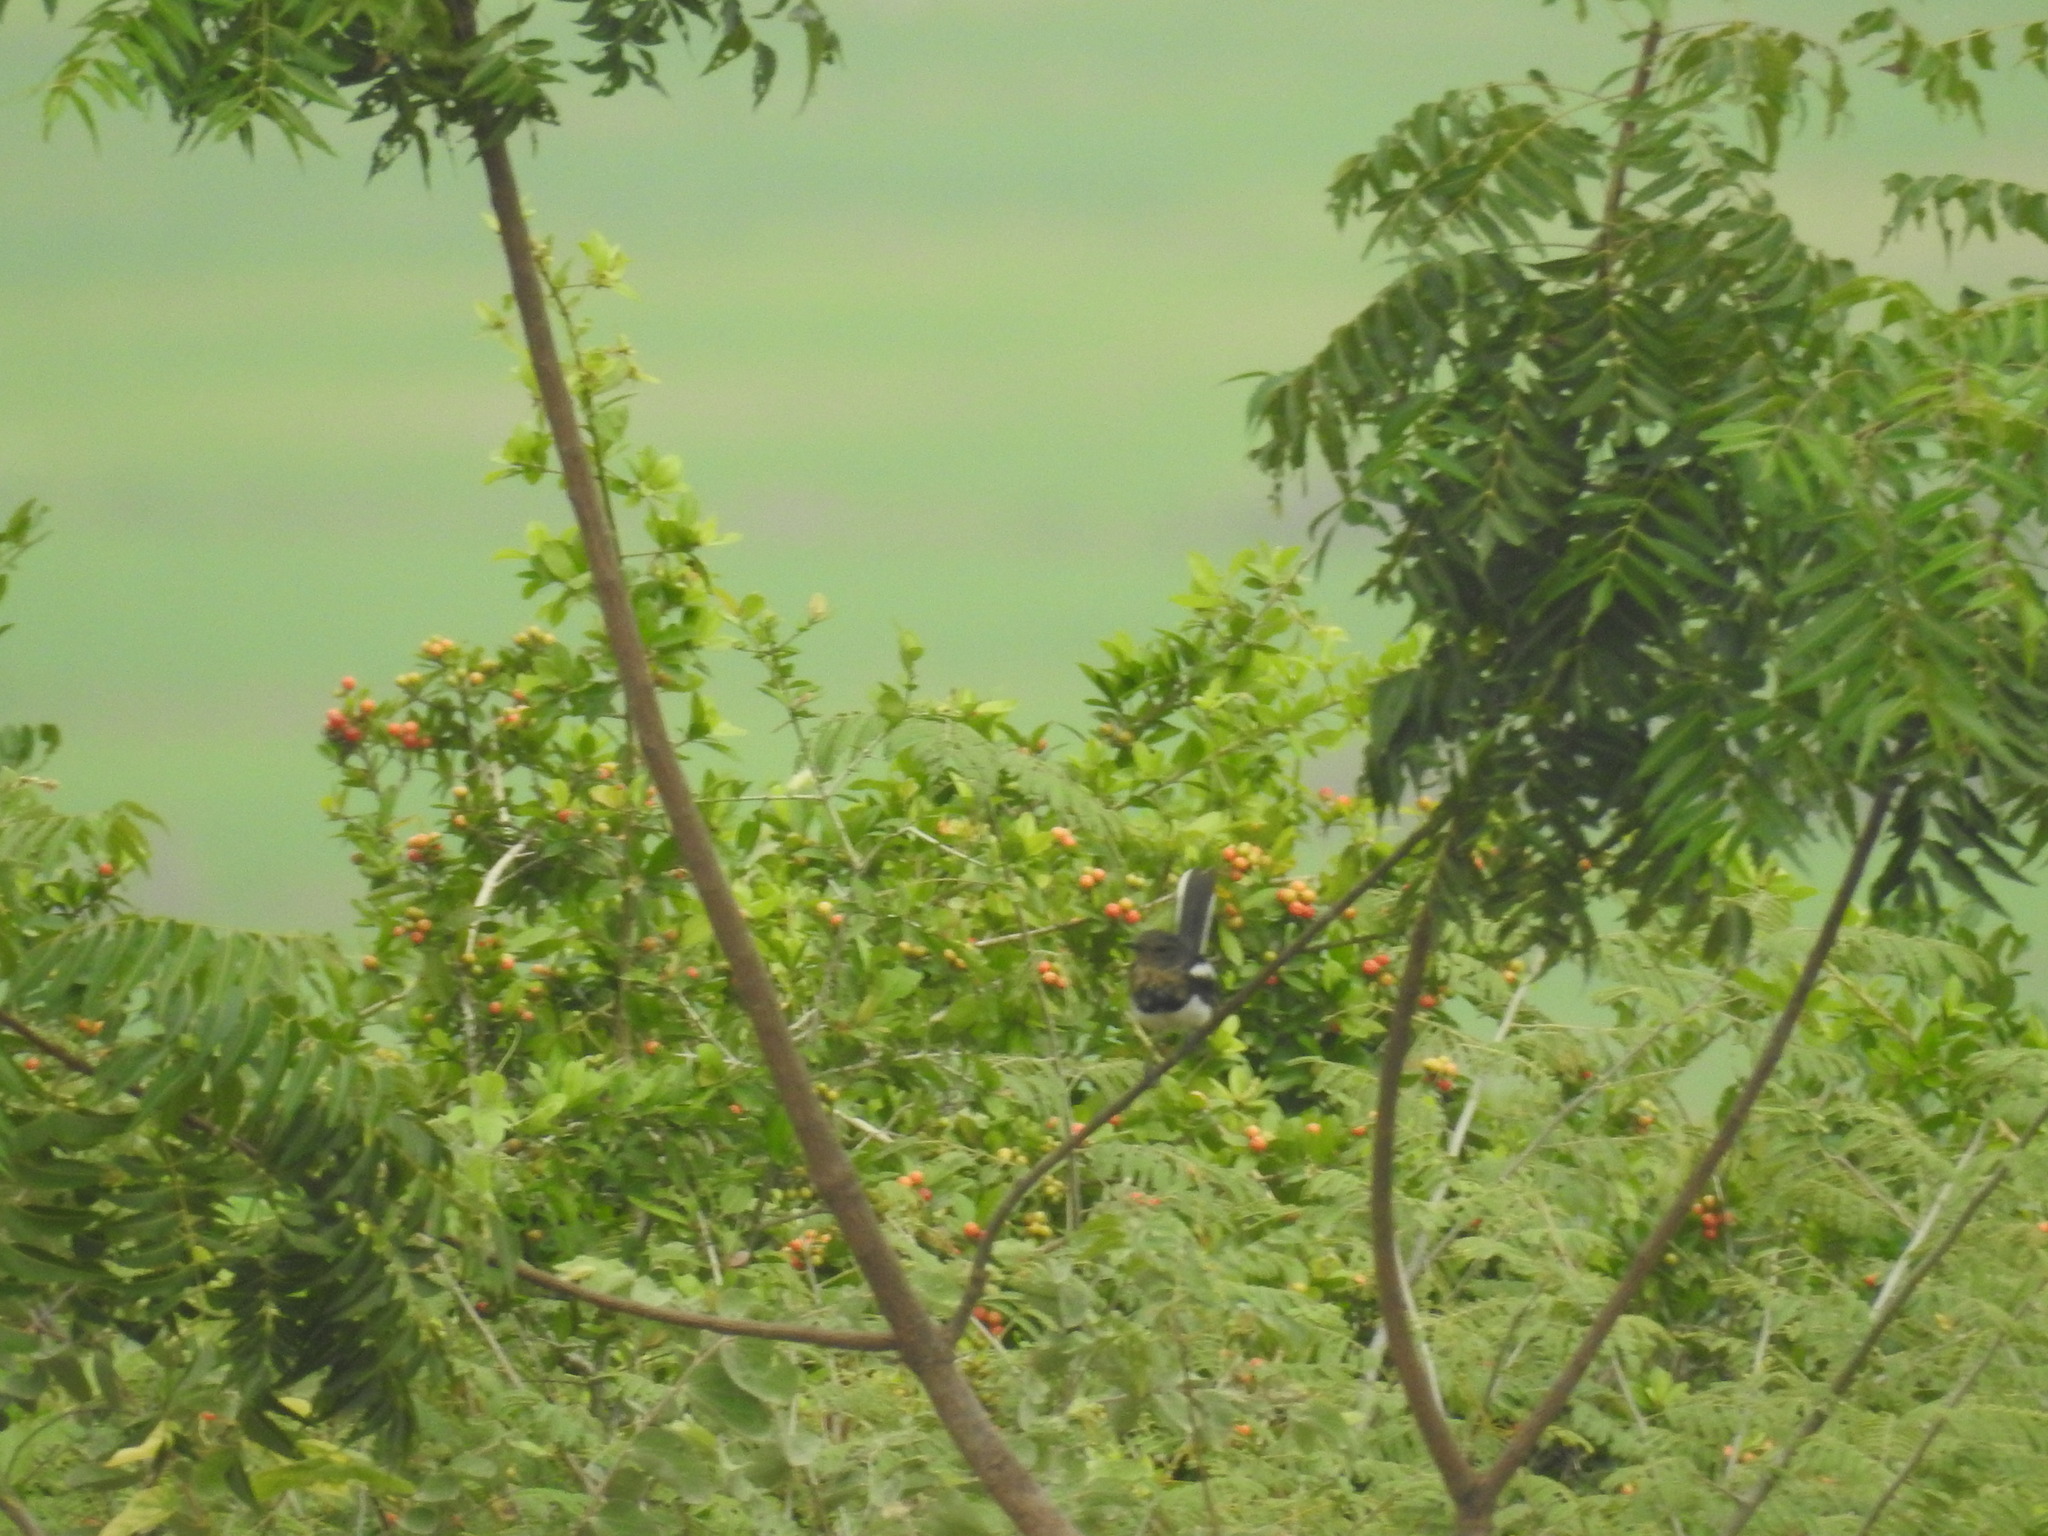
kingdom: Animalia
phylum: Chordata
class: Aves
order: Passeriformes
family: Muscicapidae
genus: Copsychus
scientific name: Copsychus saularis
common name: Oriental magpie-robin
